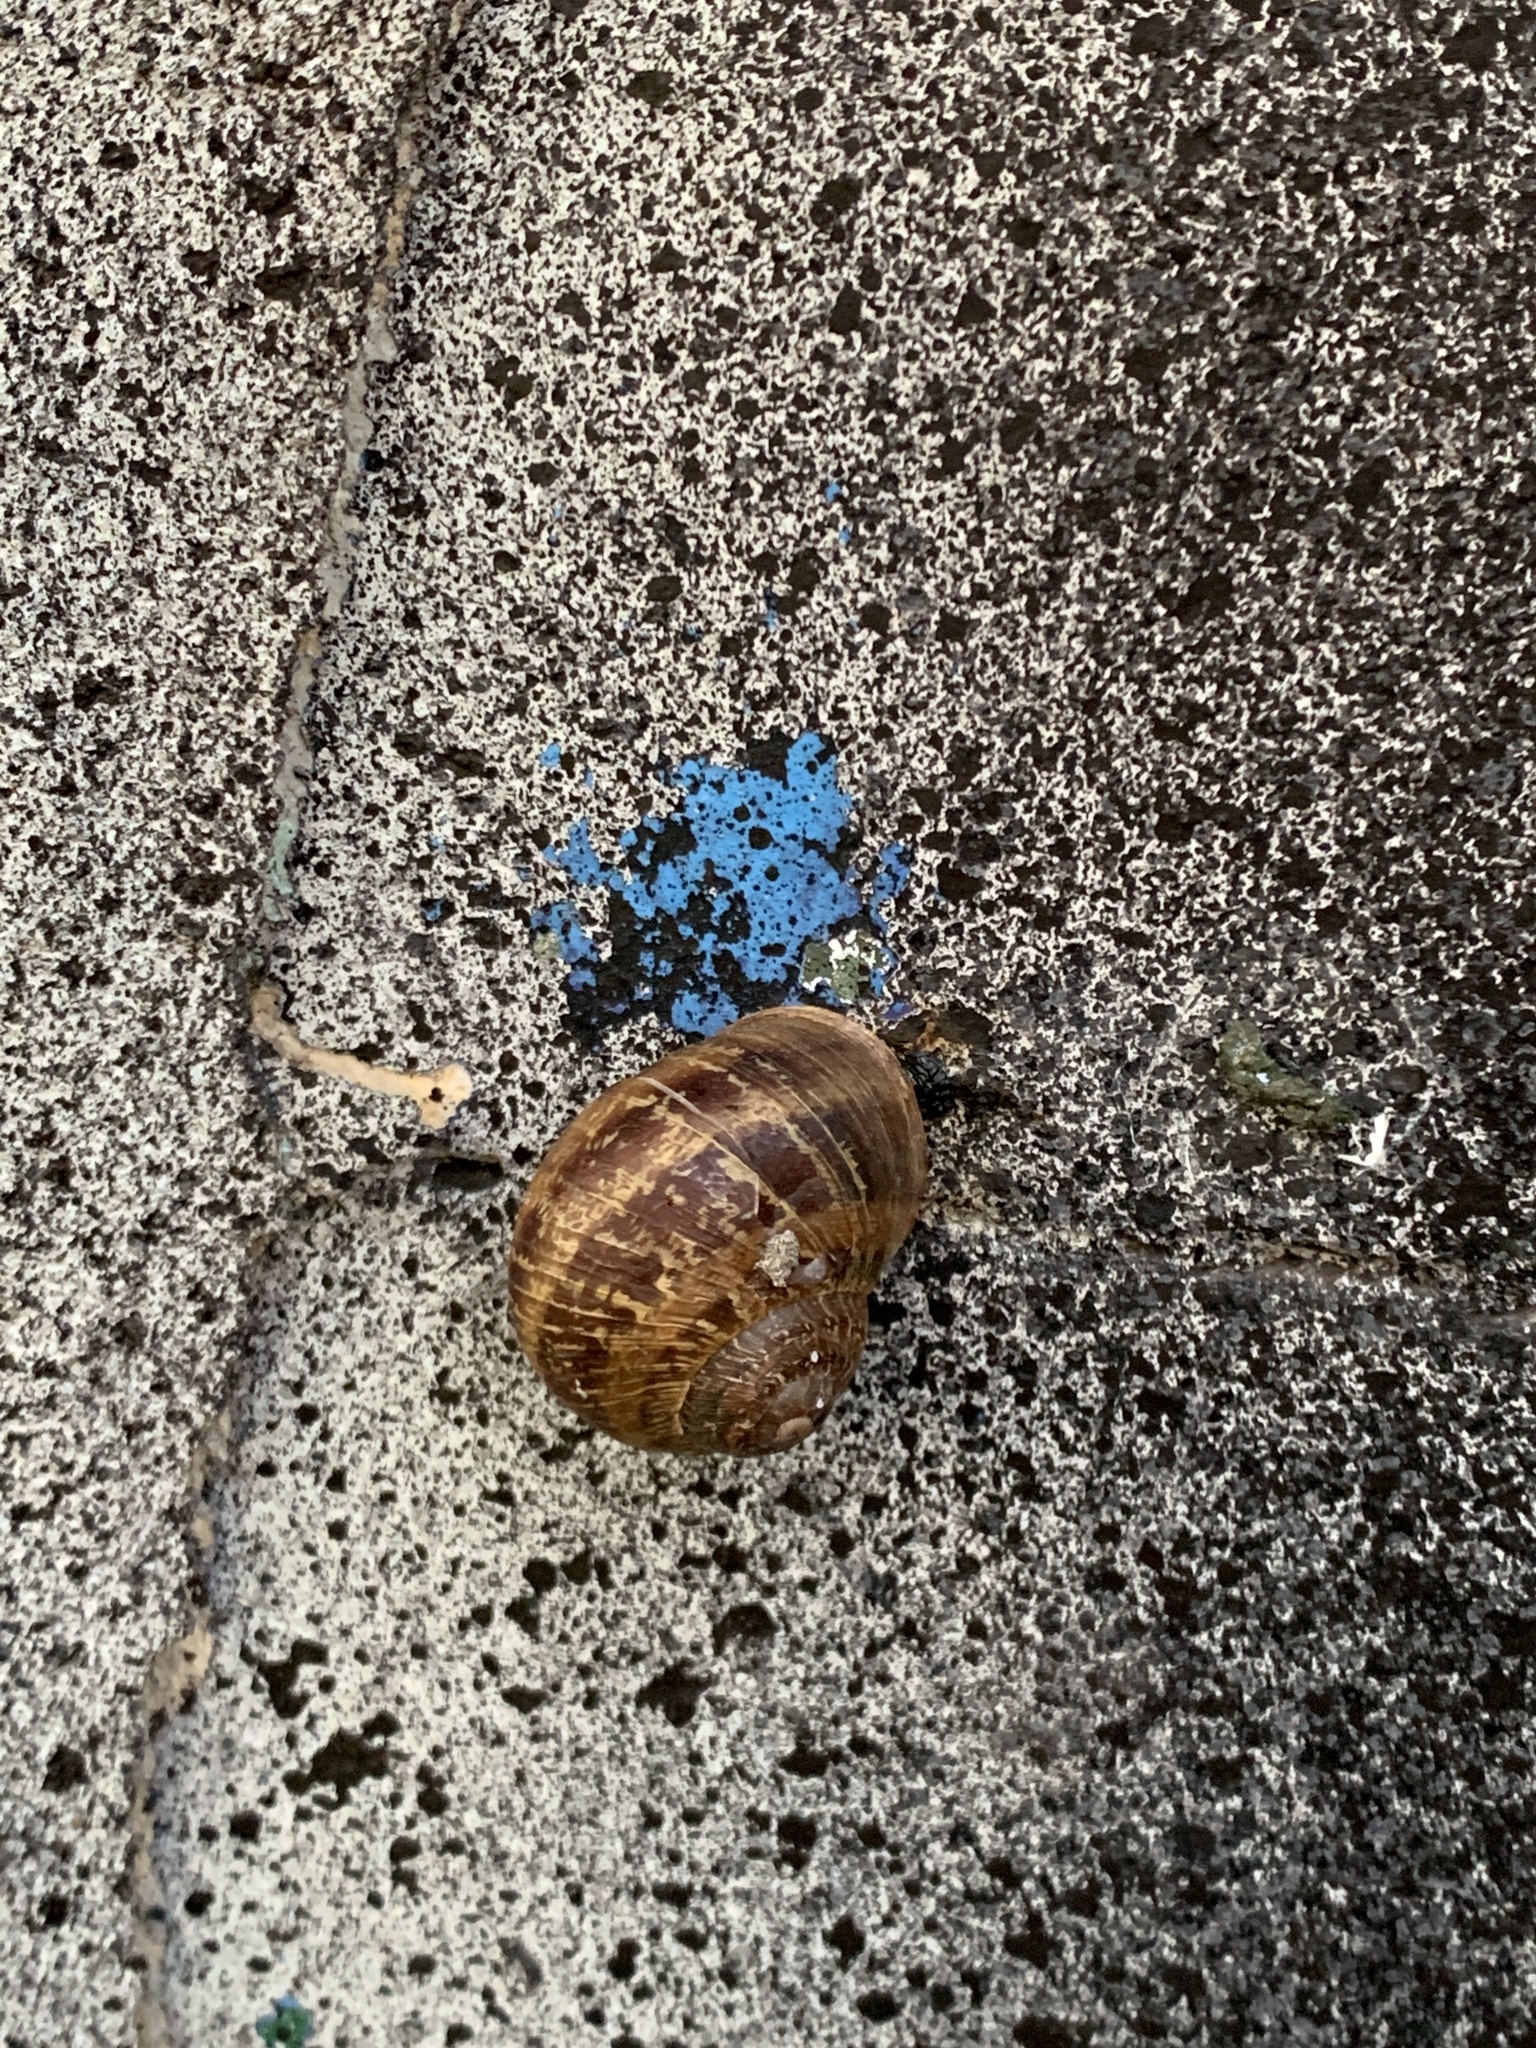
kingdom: Animalia
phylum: Mollusca
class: Gastropoda
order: Stylommatophora
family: Helicidae
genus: Cornu
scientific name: Cornu aspersum
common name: Brown garden snail
